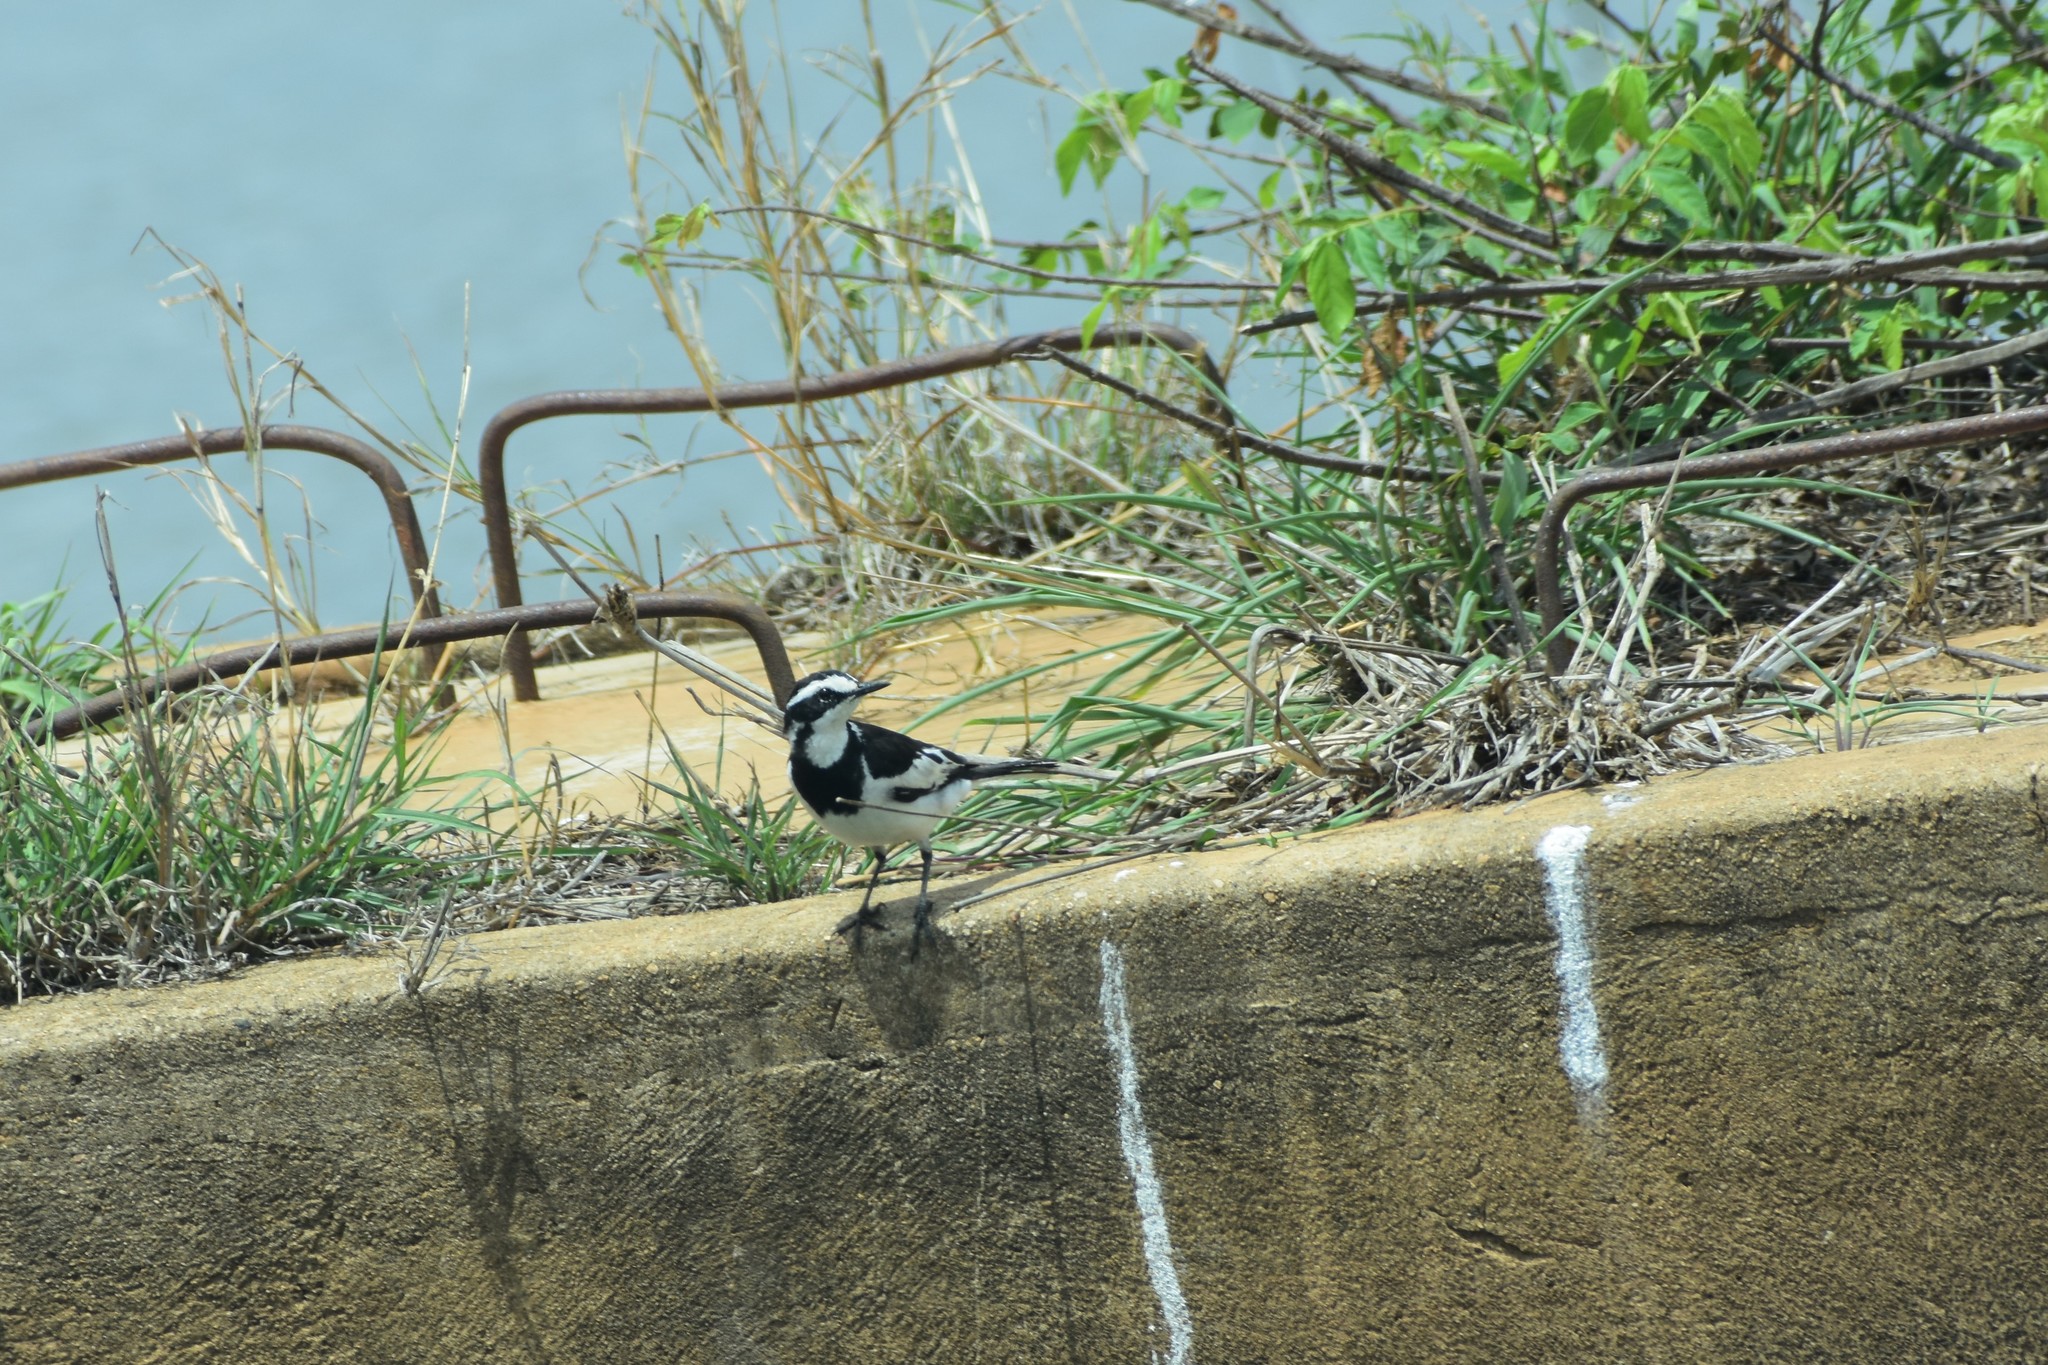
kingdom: Animalia
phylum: Chordata
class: Aves
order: Passeriformes
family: Motacillidae
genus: Motacilla
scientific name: Motacilla aguimp
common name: African pied wagtail
